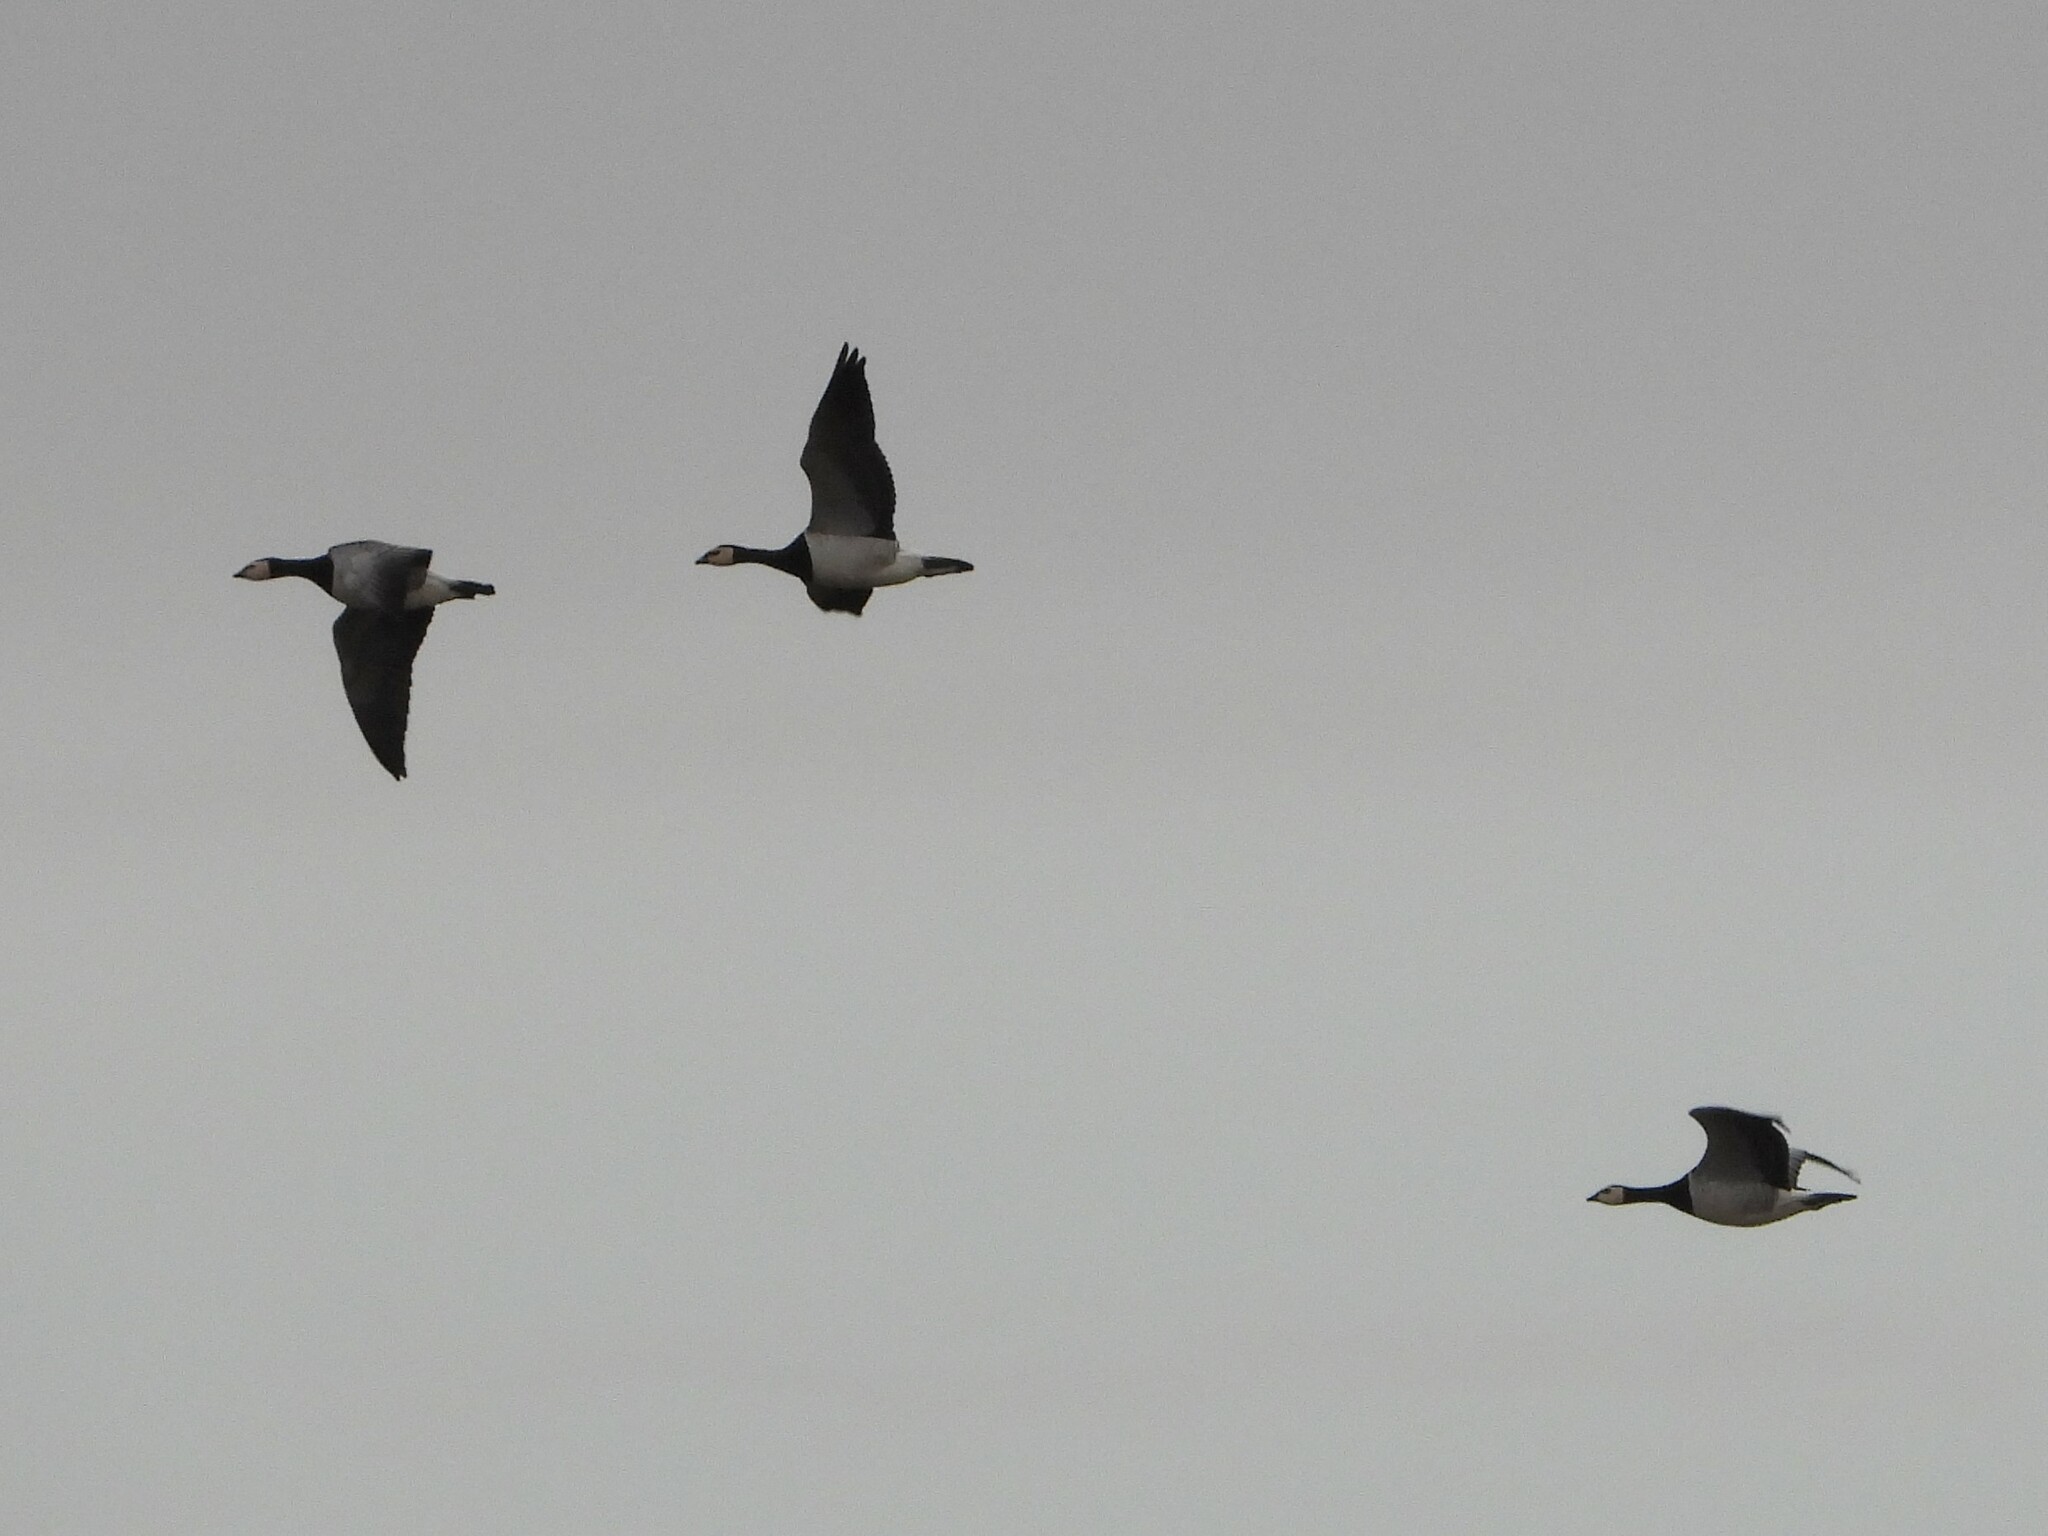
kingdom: Animalia
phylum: Chordata
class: Aves
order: Anseriformes
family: Anatidae
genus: Branta
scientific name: Branta leucopsis
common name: Barnacle goose
